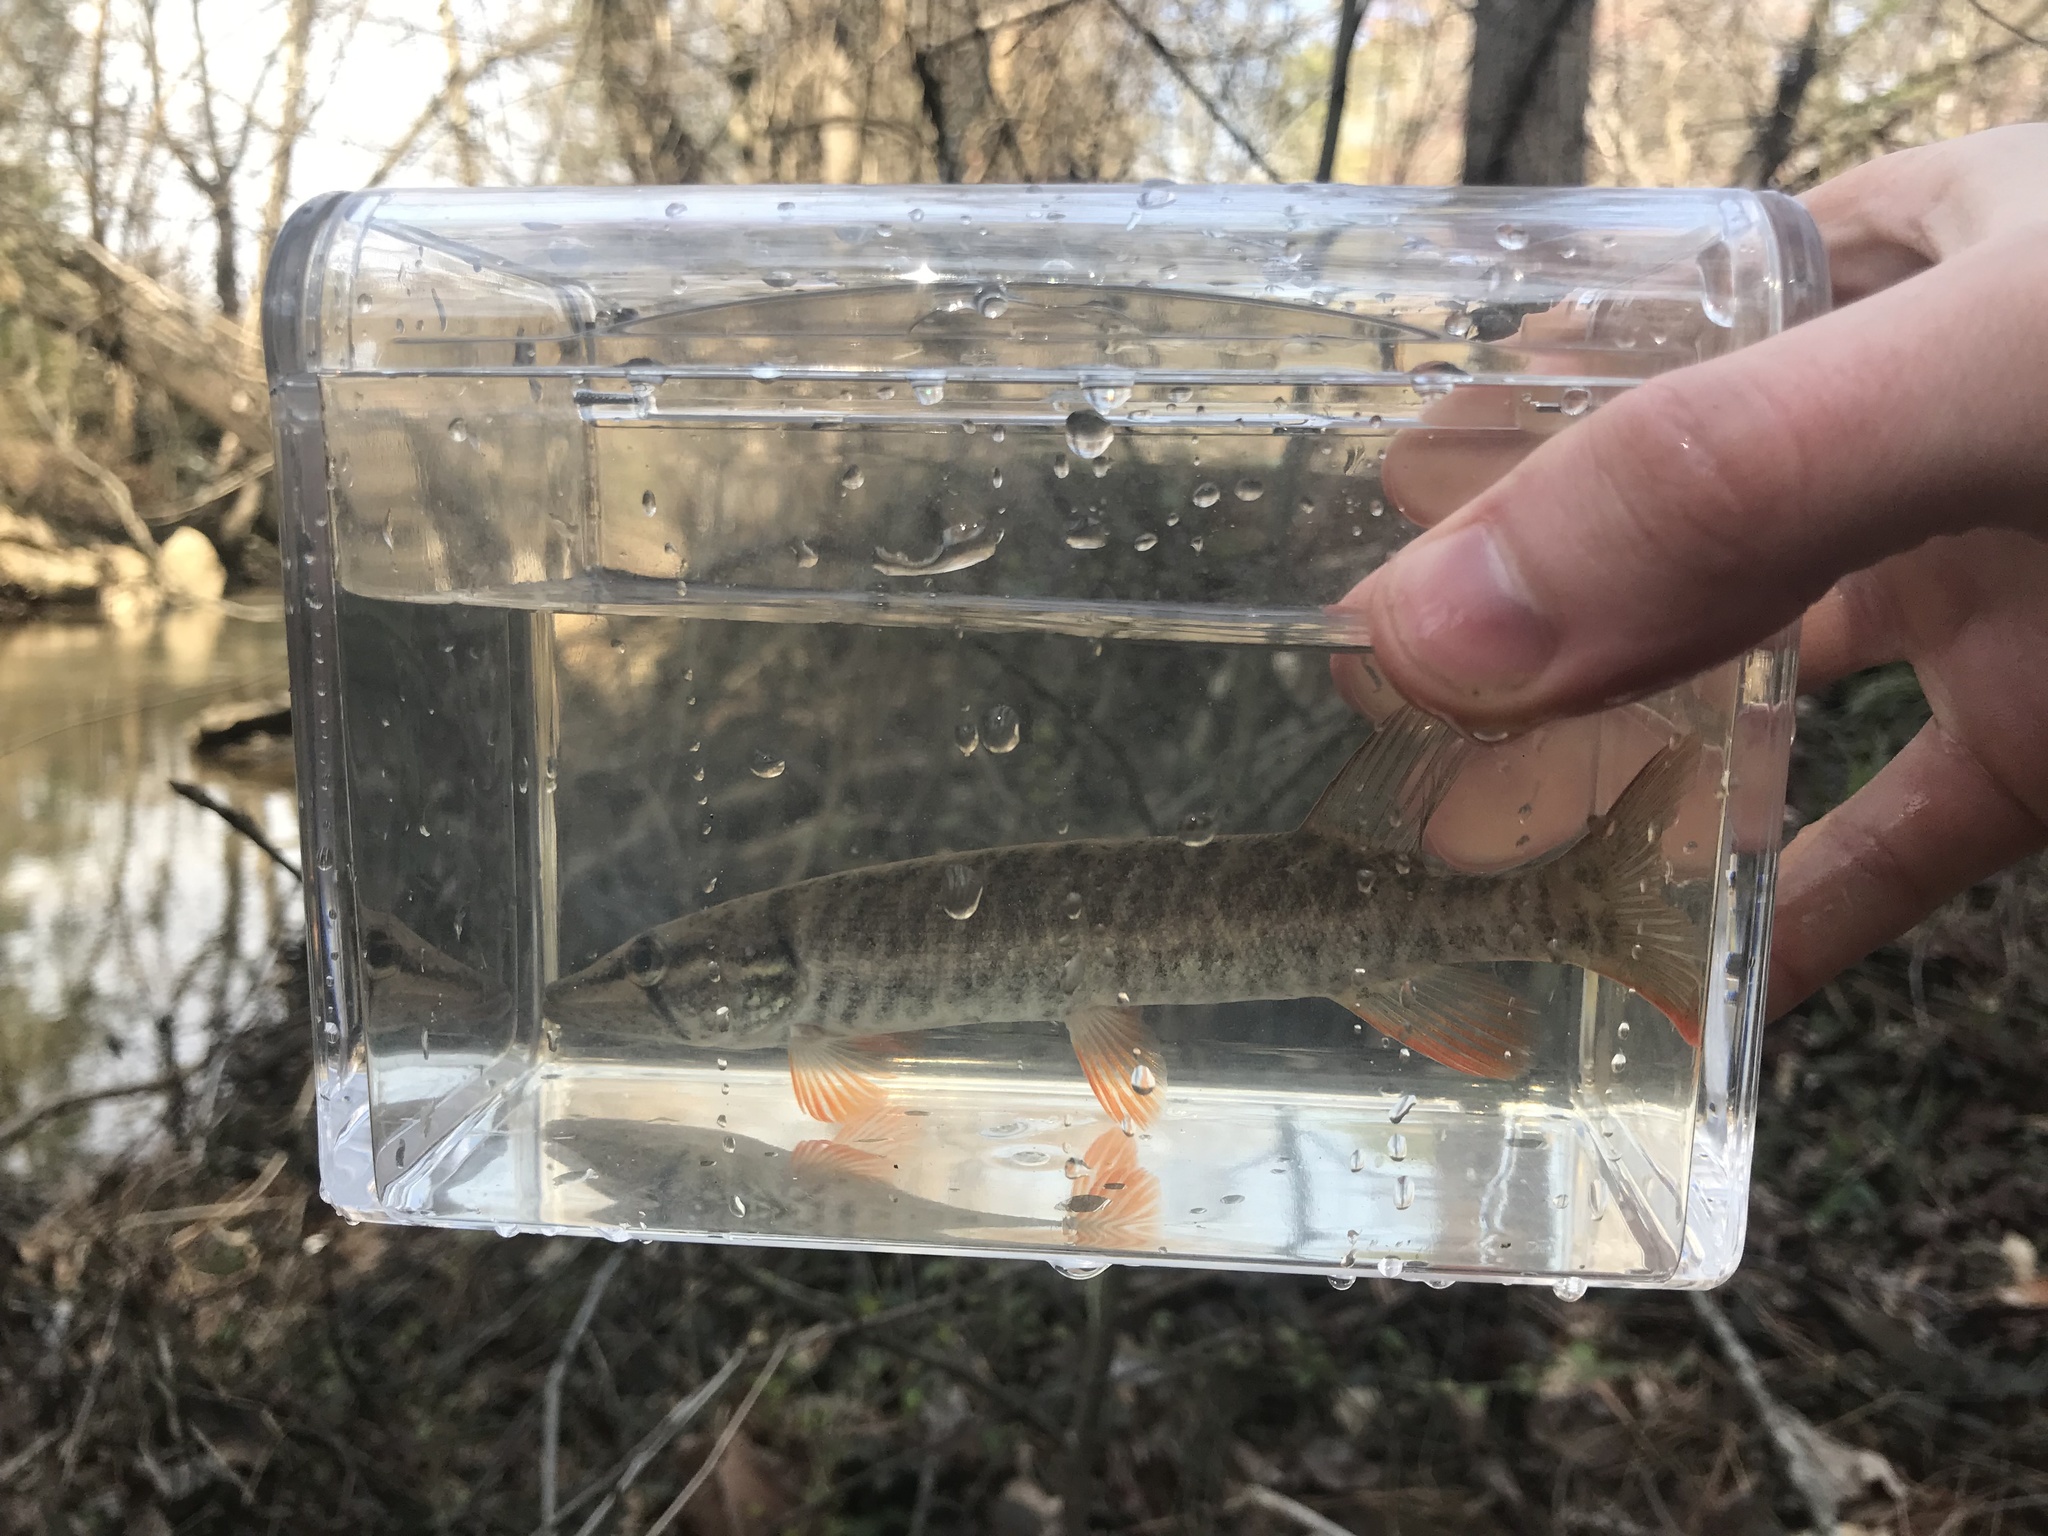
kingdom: Animalia
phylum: Chordata
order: Esociformes
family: Esocidae
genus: Esox
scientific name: Esox americanus
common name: Redfin pickerel
